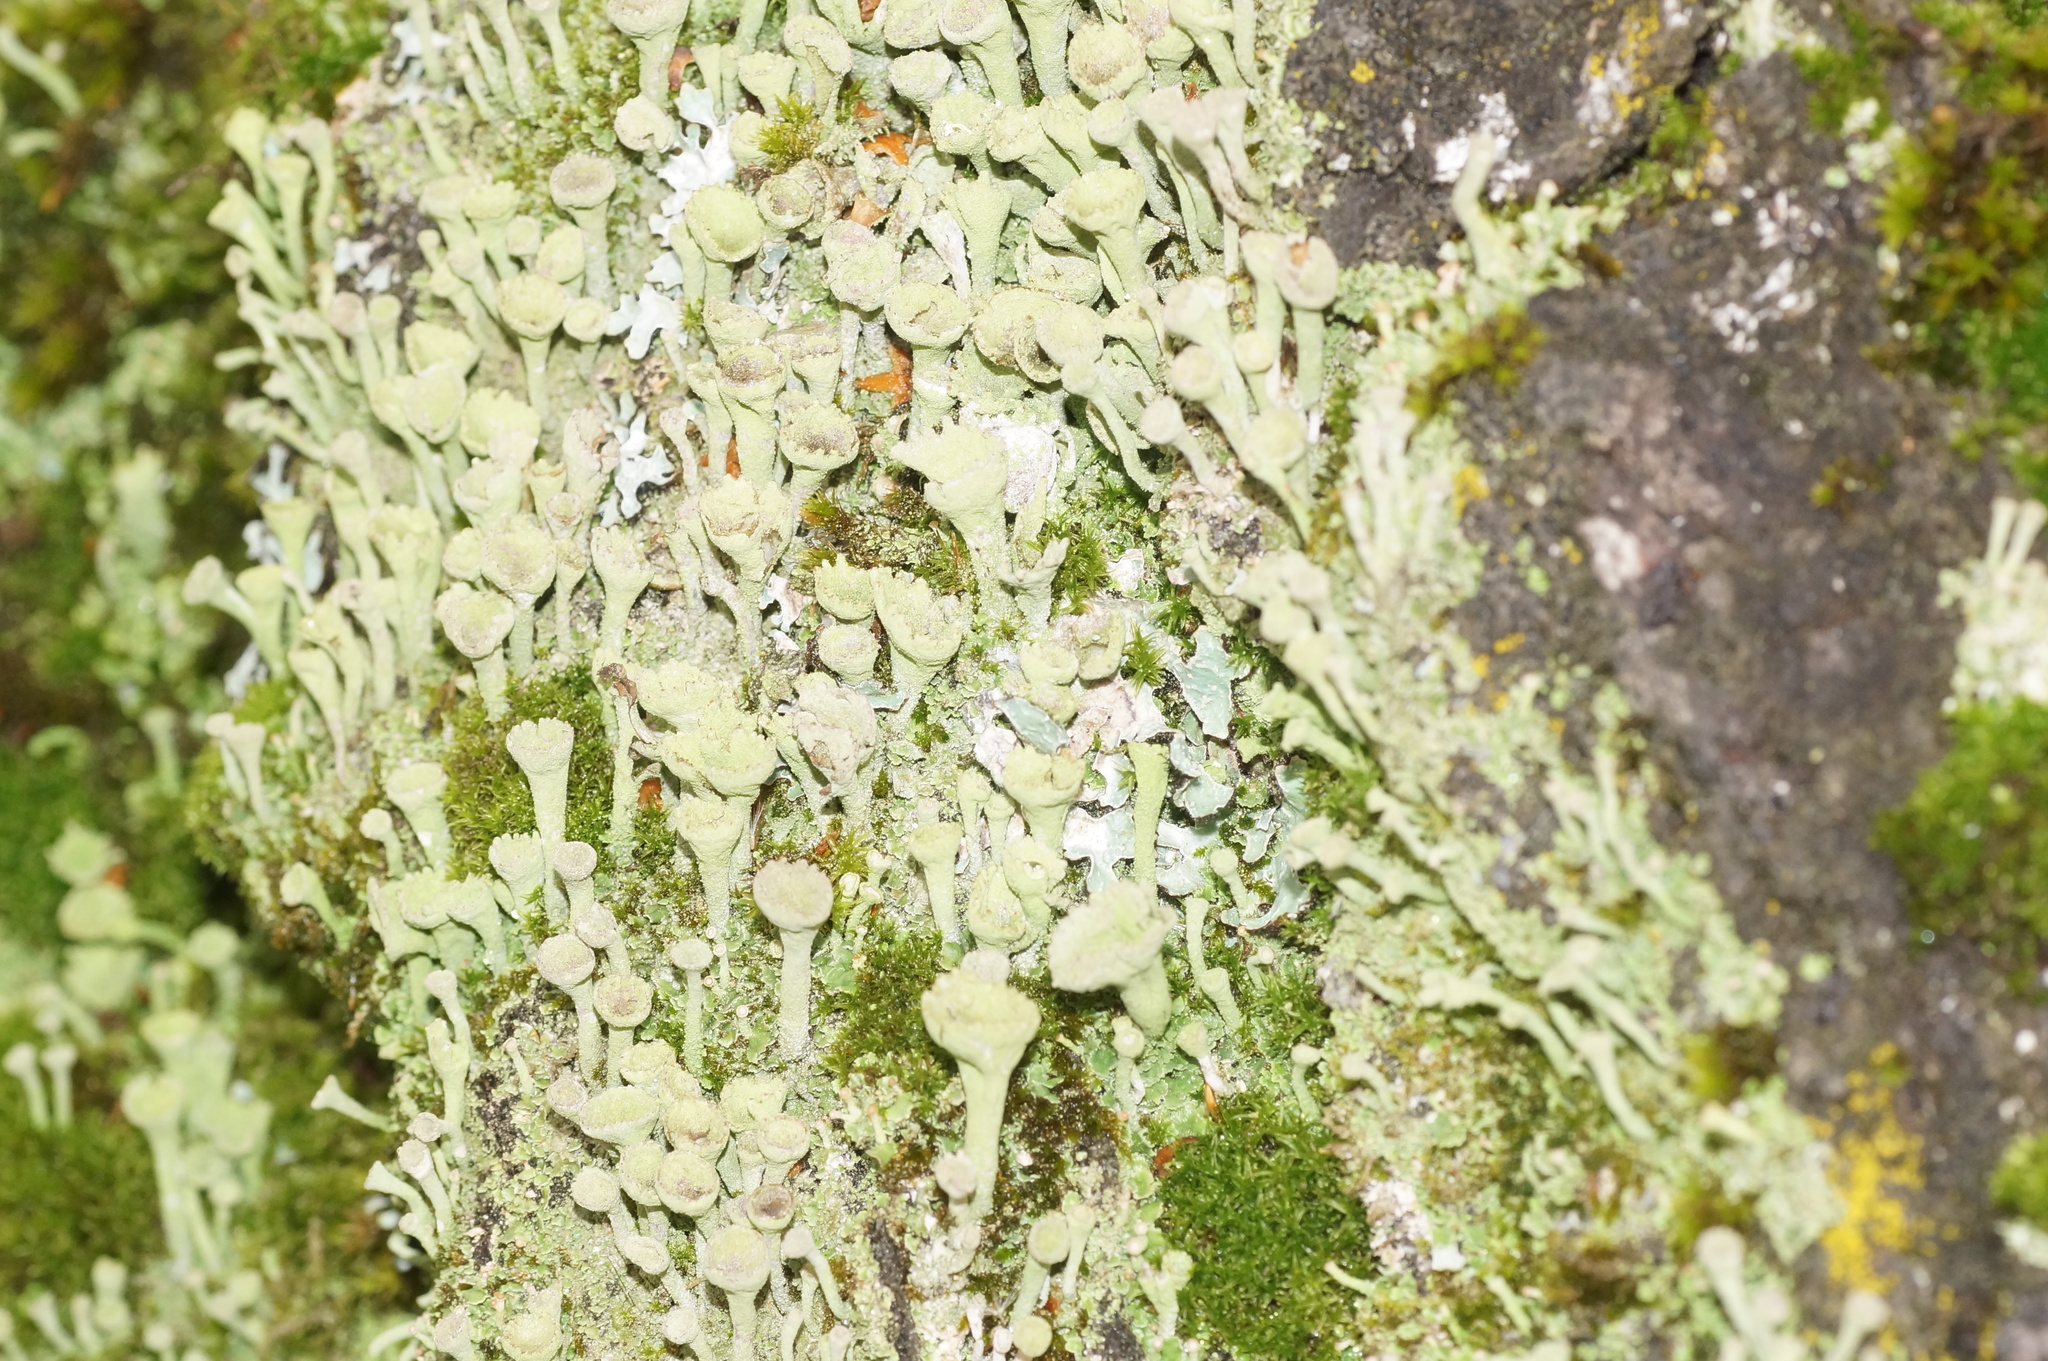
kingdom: Fungi
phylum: Ascomycota
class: Lecanoromycetes
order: Lecanorales
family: Cladoniaceae
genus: Cladonia
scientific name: Cladonia fimbriata
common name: Powdered trumpet lichen
